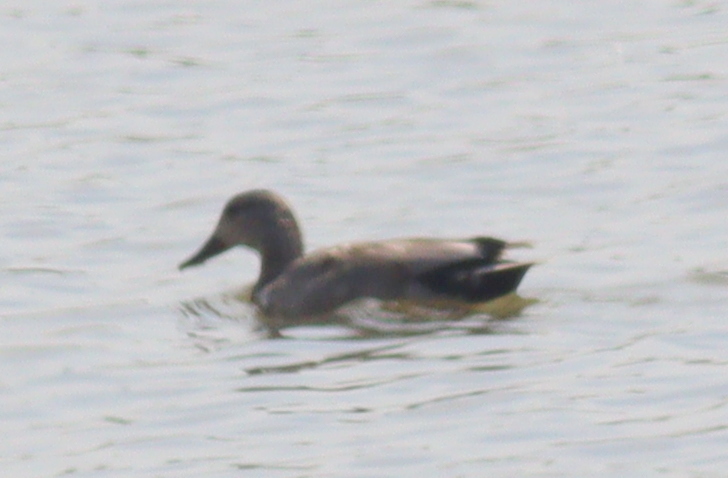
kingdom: Animalia
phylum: Chordata
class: Aves
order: Anseriformes
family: Anatidae
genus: Mareca
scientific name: Mareca strepera
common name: Gadwall
